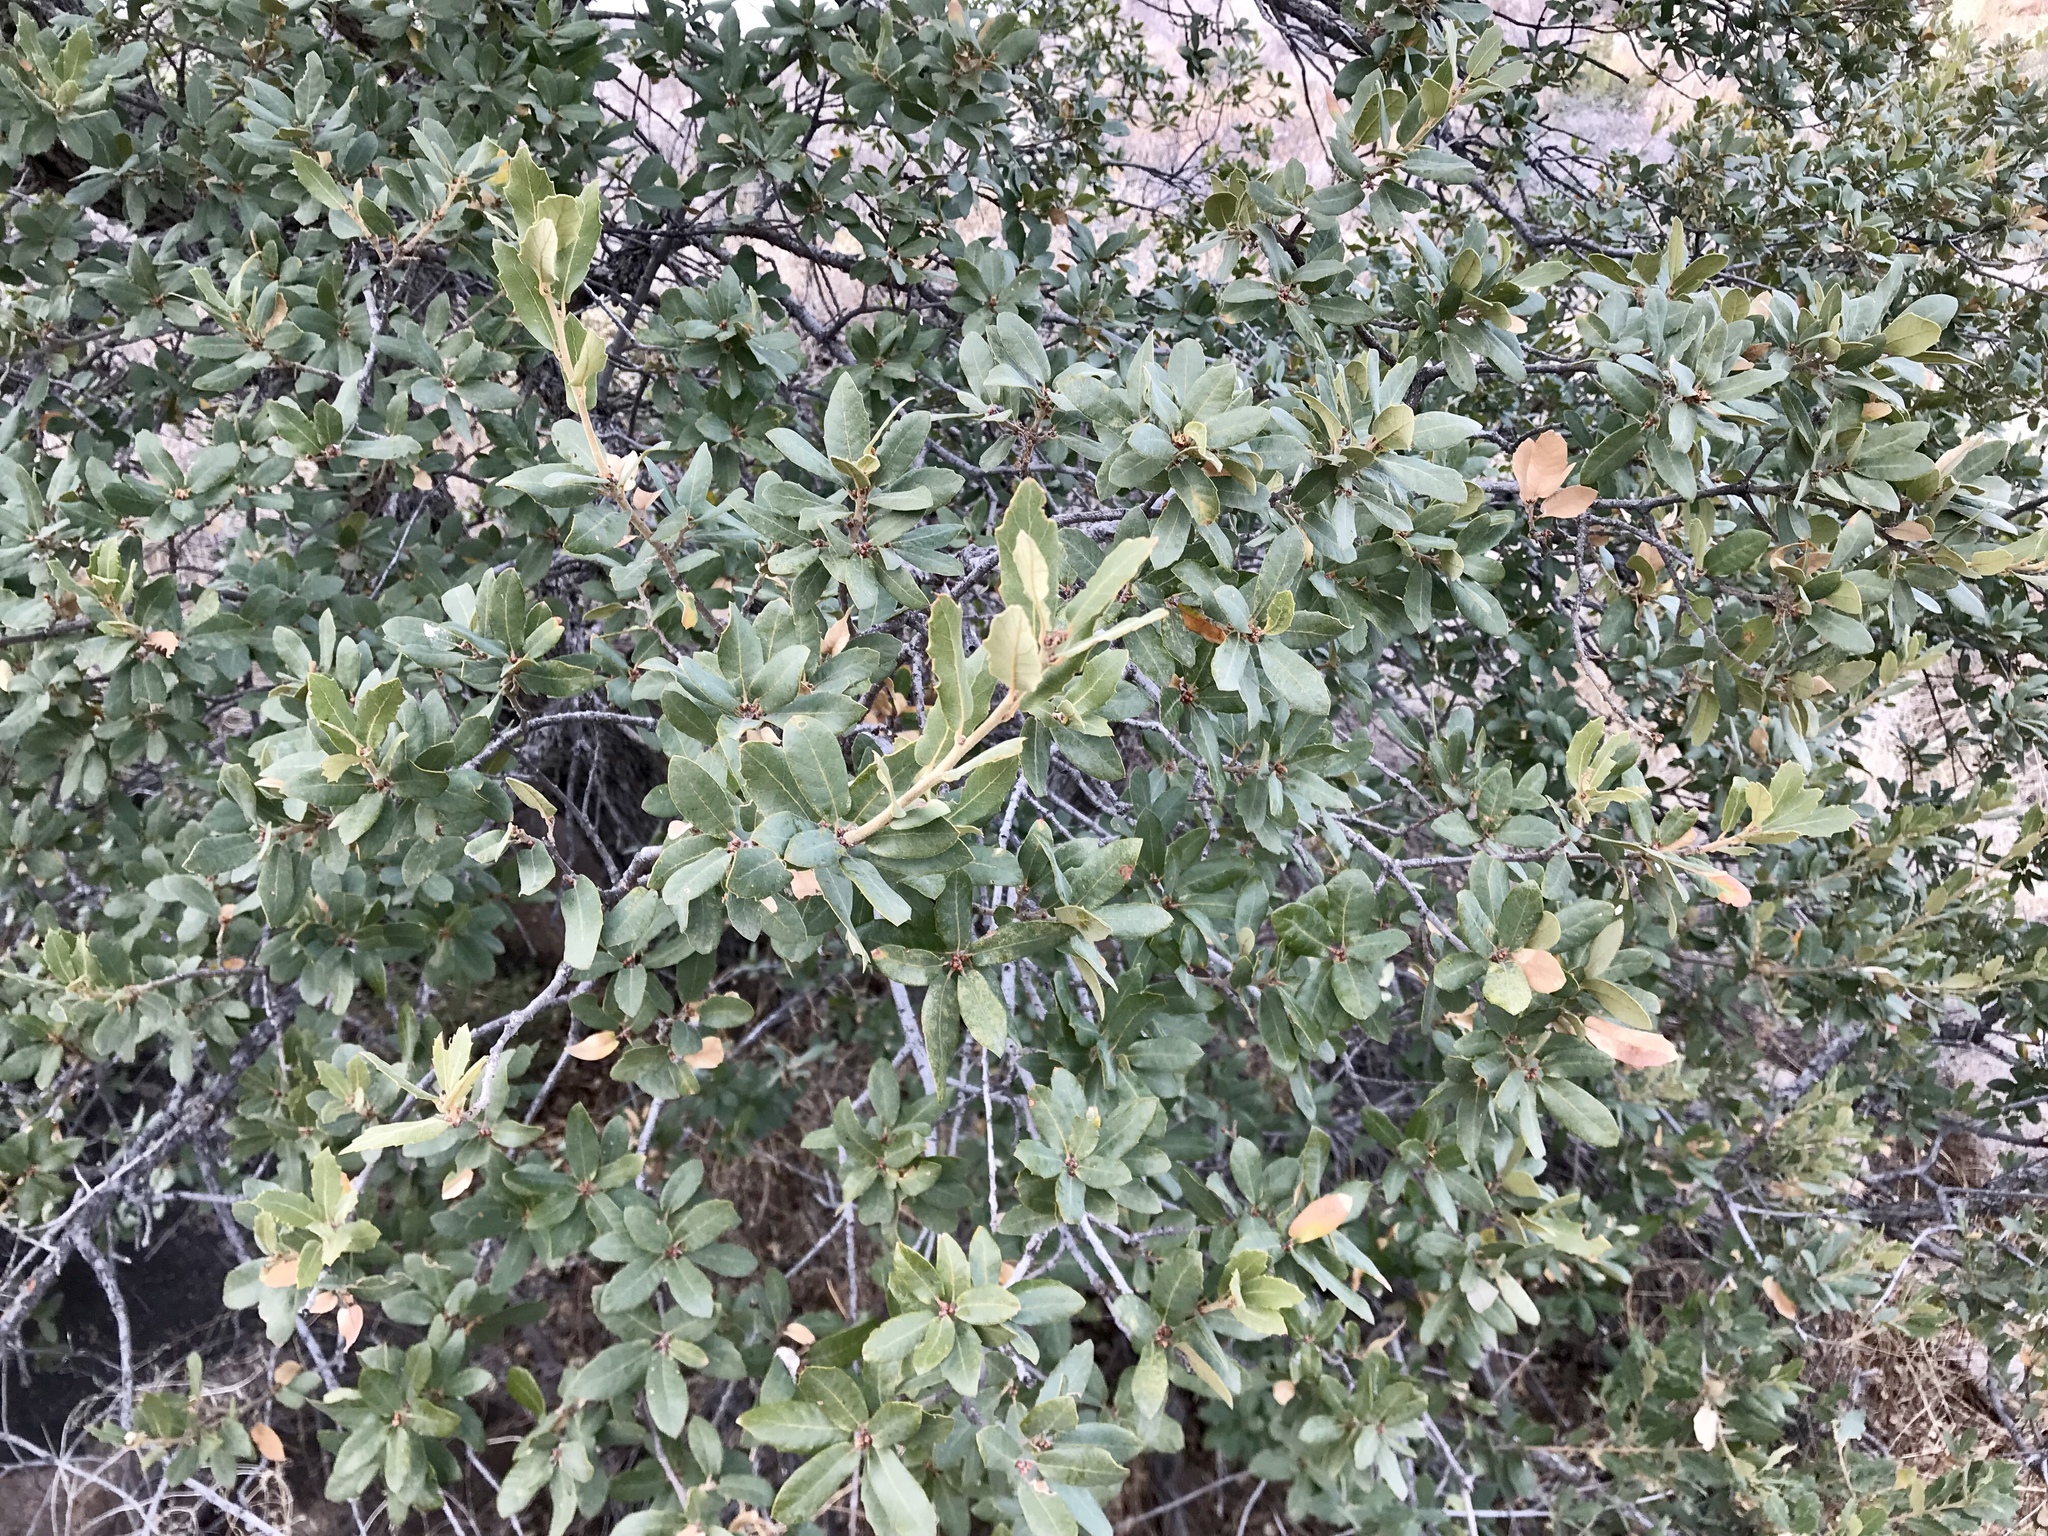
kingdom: Plantae
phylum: Tracheophyta
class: Magnoliopsida
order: Fagales
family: Fagaceae
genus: Quercus
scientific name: Quercus arizonica
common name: Arizona white oak
